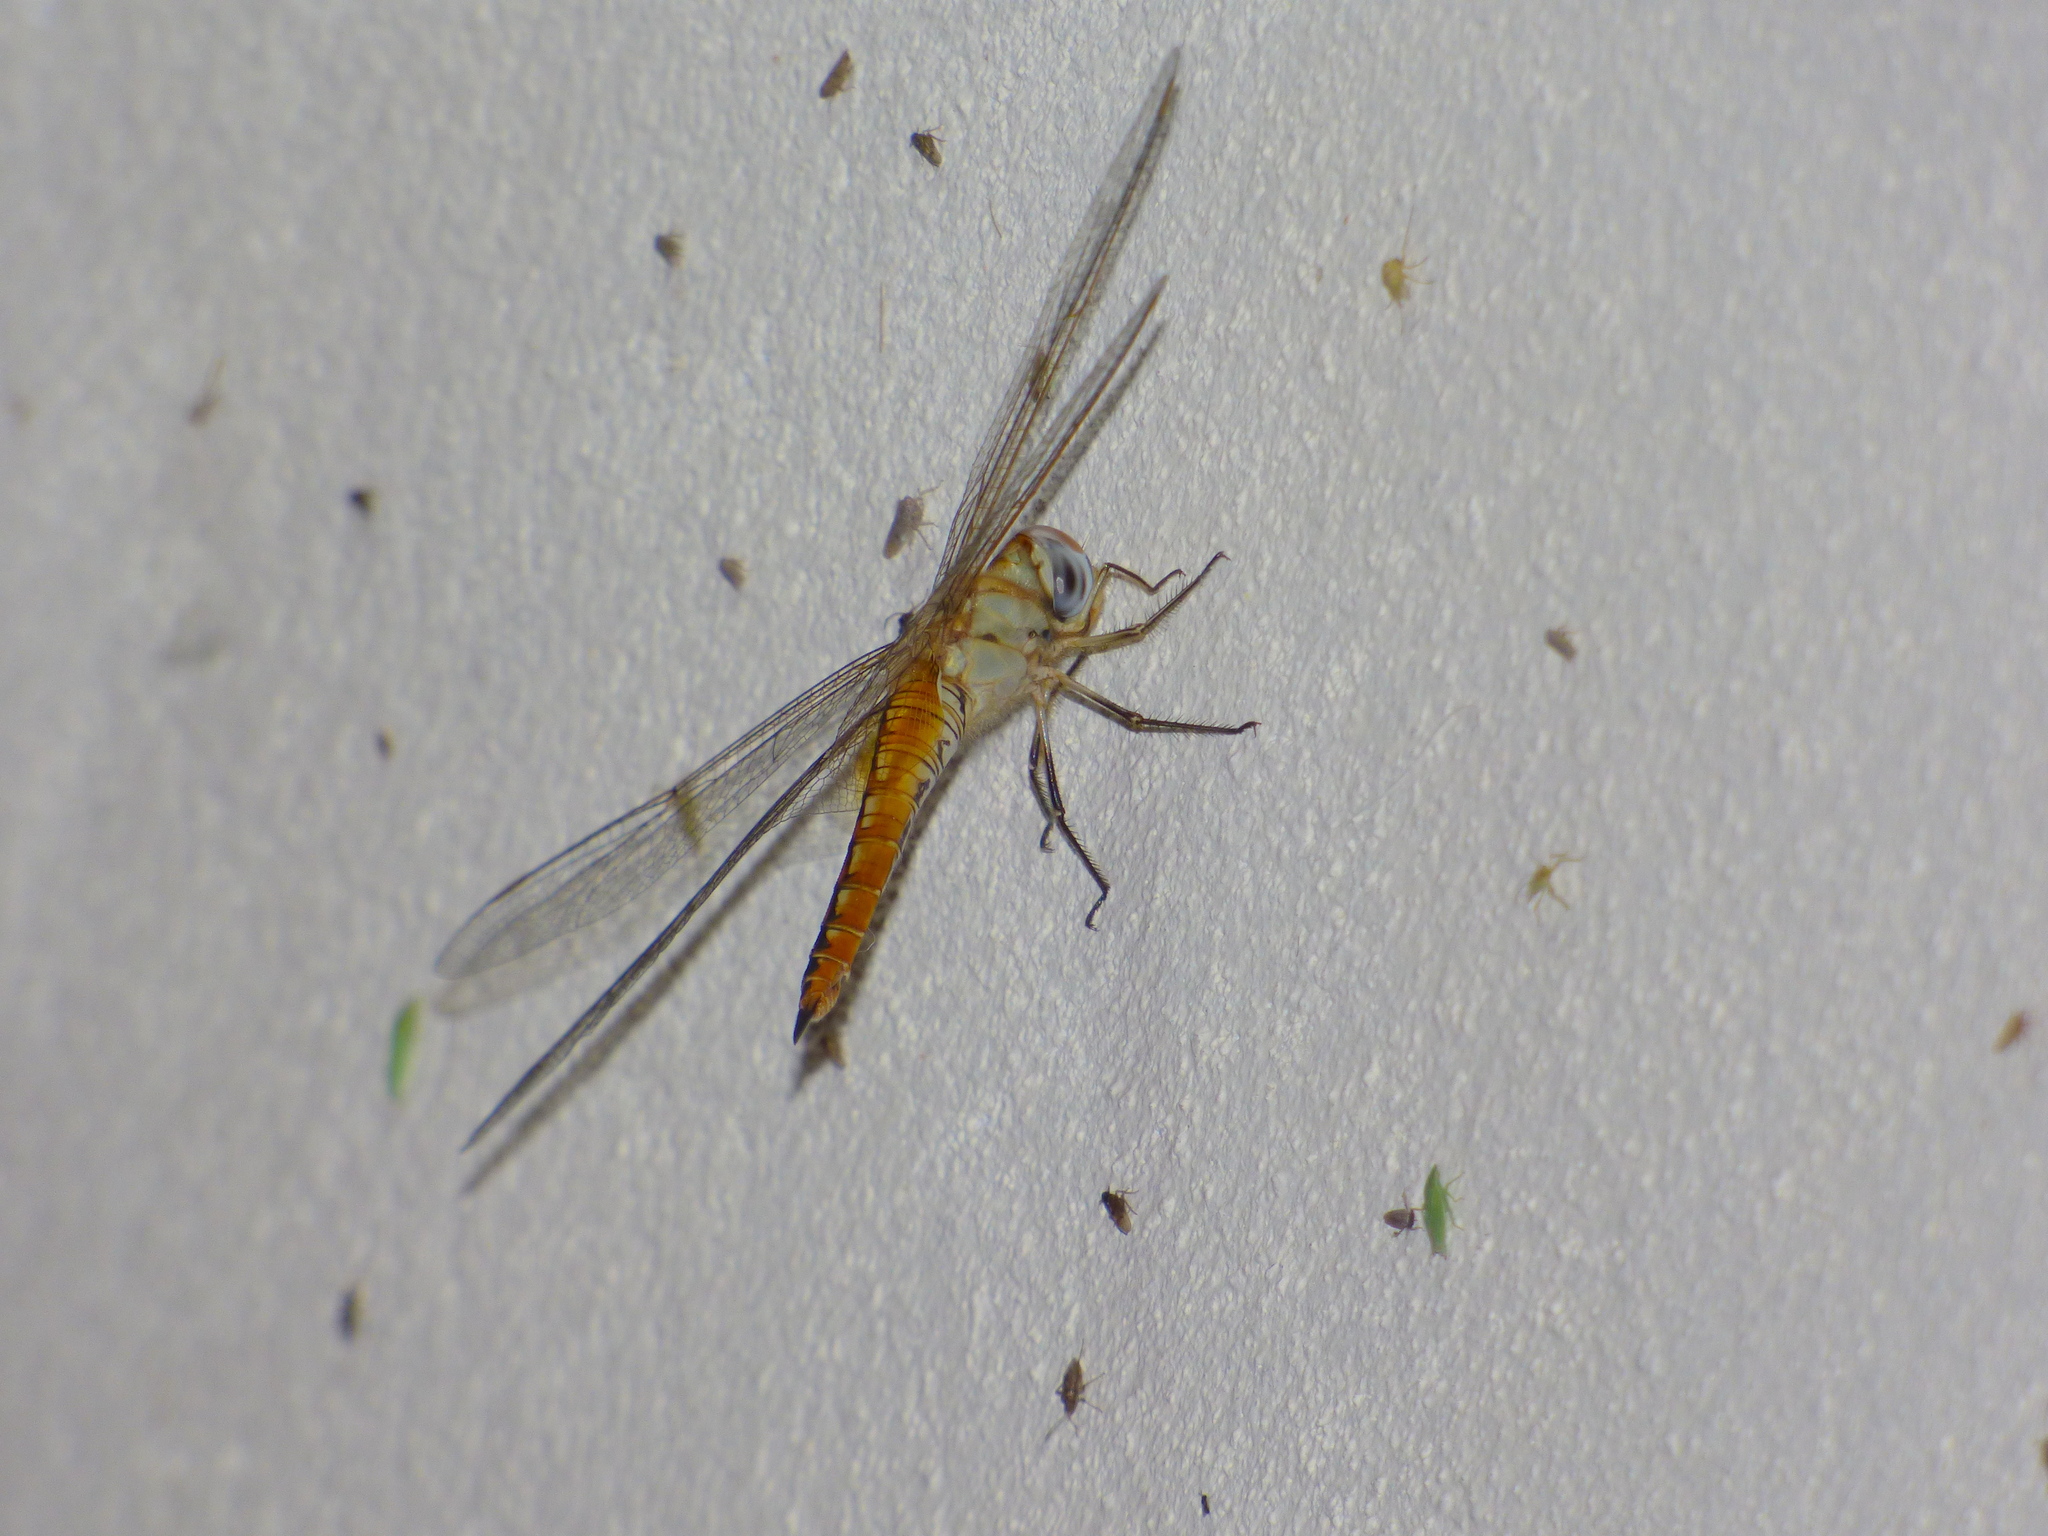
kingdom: Animalia
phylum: Arthropoda
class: Insecta
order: Odonata
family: Libellulidae
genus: Pantala
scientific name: Pantala flavescens
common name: Wandering glider
